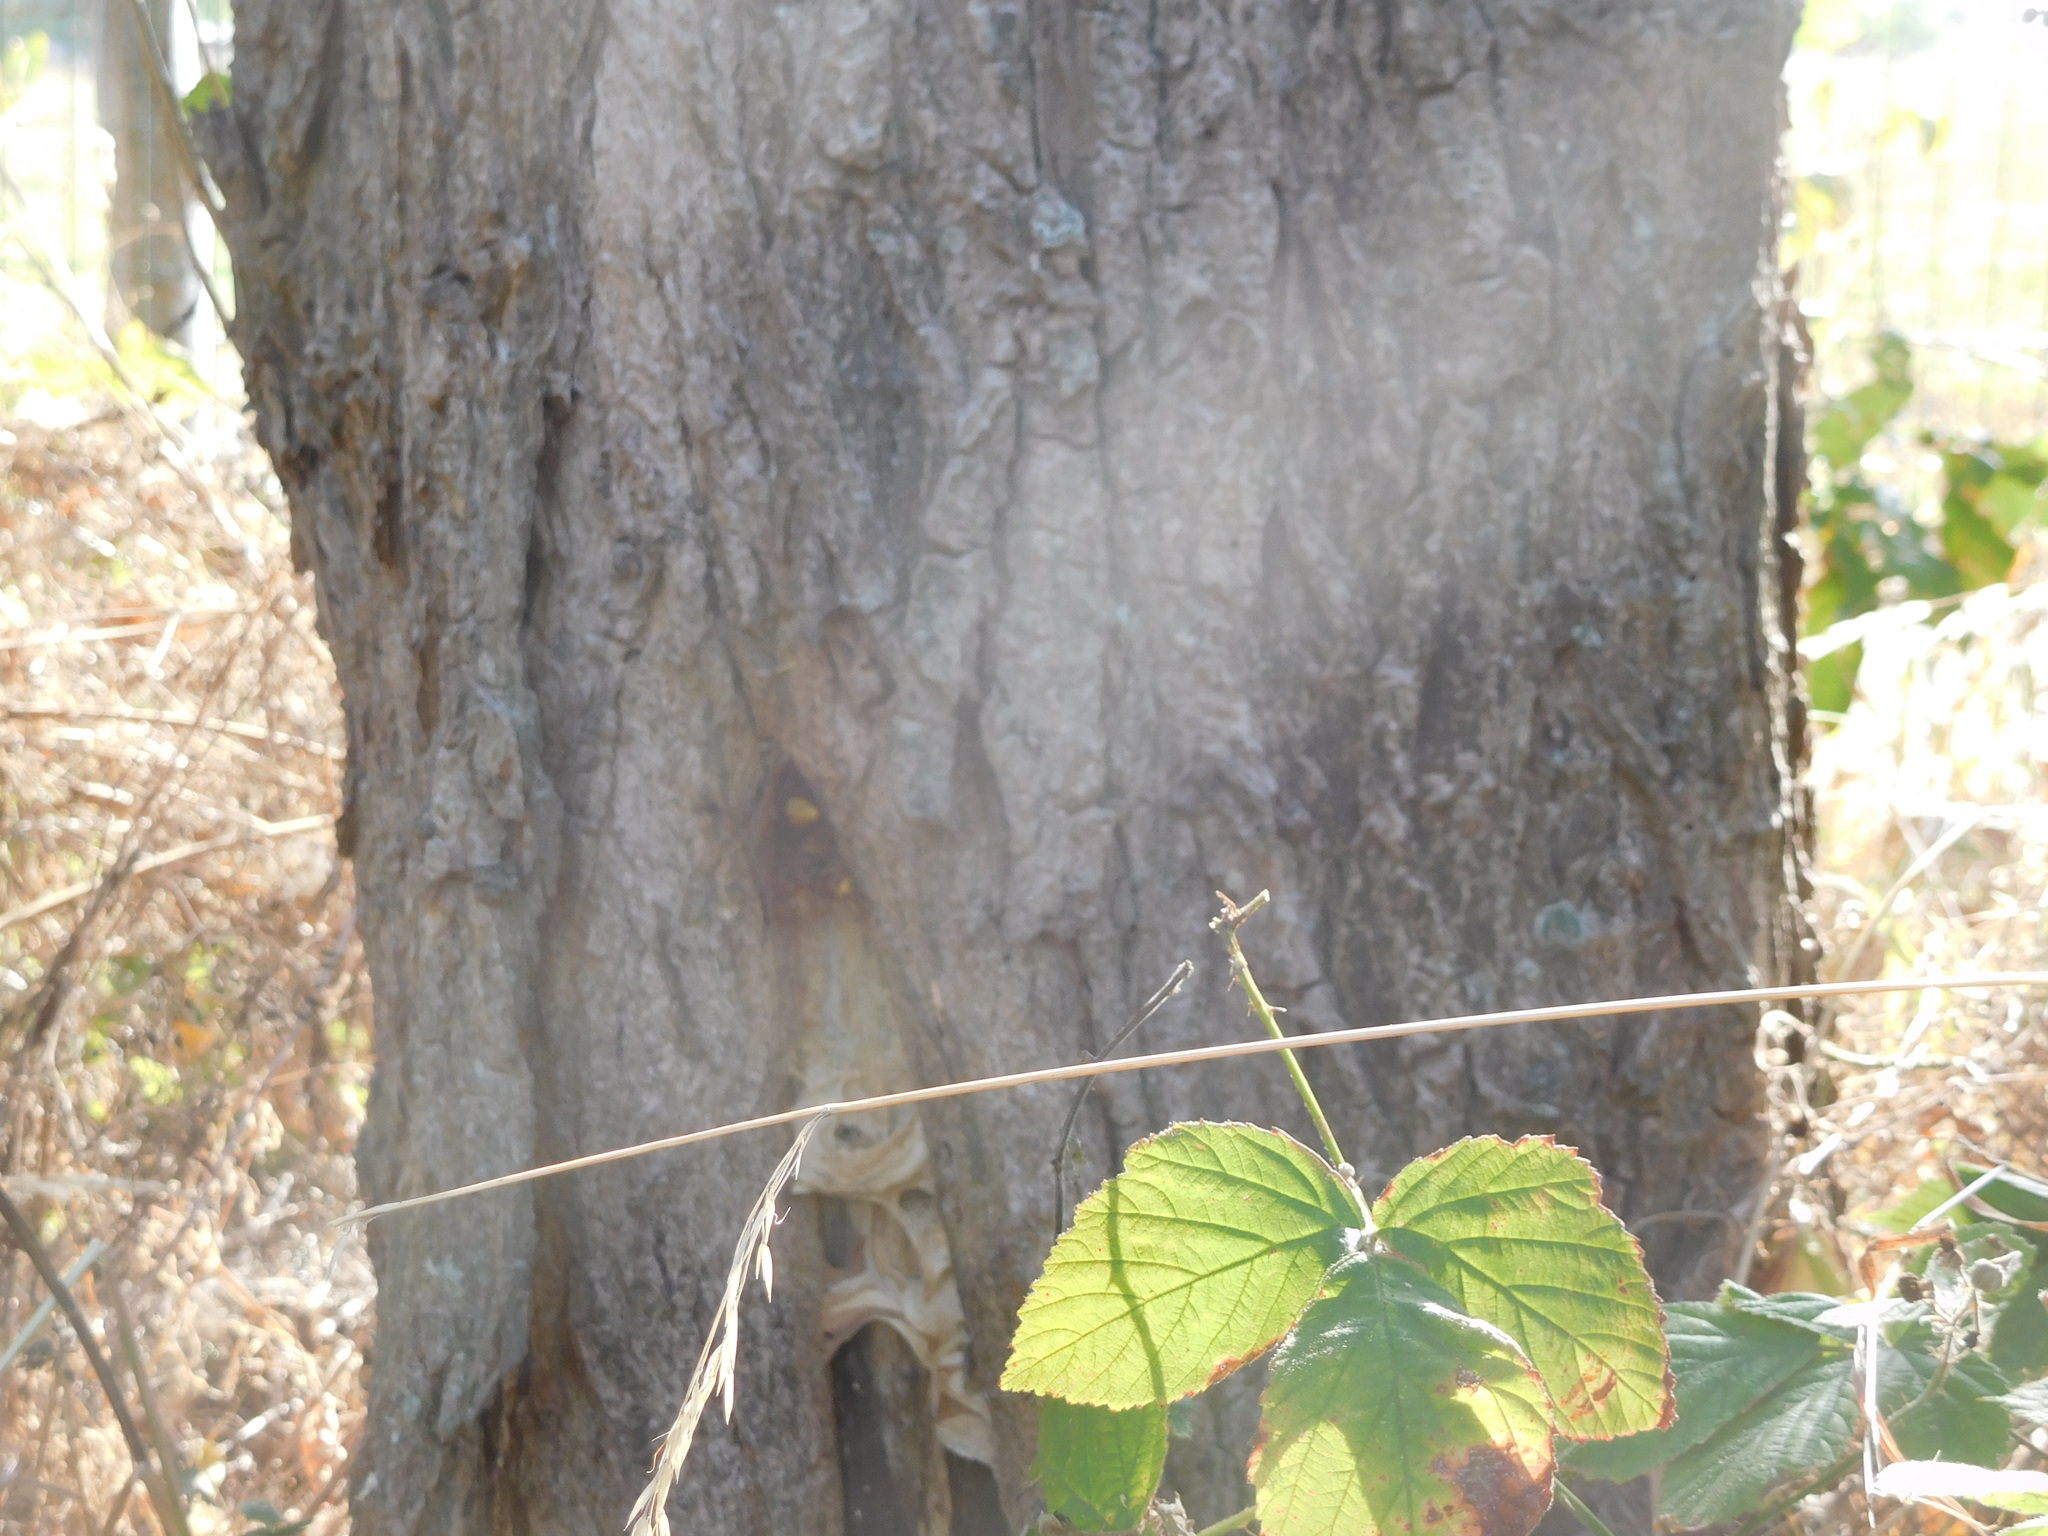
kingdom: Animalia
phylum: Arthropoda
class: Insecta
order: Hymenoptera
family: Vespidae
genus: Vespa
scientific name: Vespa crabro
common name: Hornet
